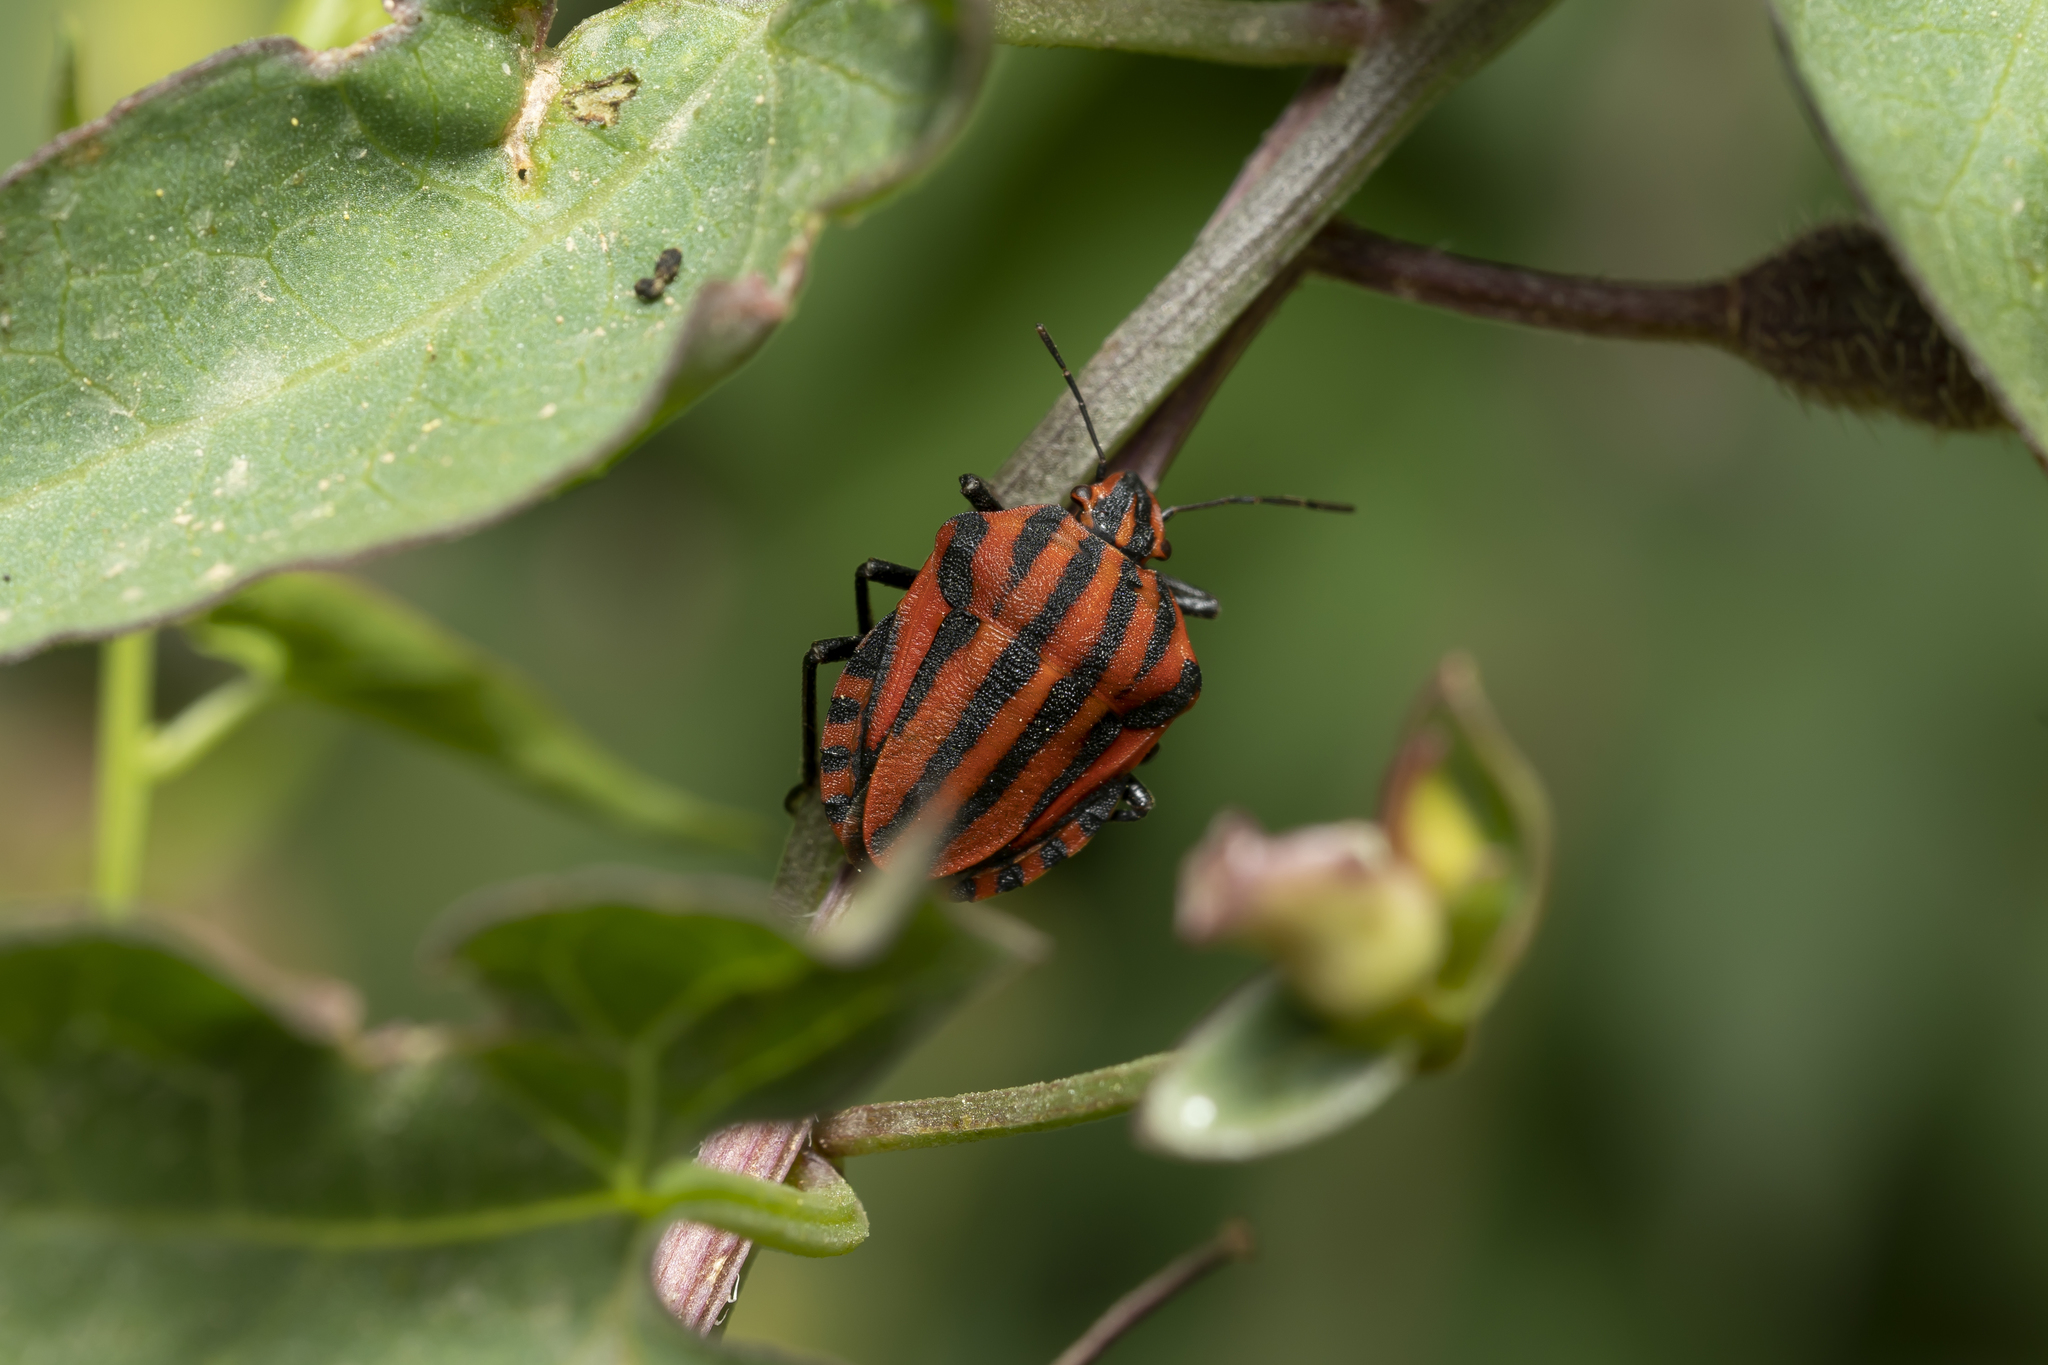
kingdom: Animalia
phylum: Arthropoda
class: Insecta
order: Hemiptera
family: Pentatomidae
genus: Graphosoma
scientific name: Graphosoma italicum
